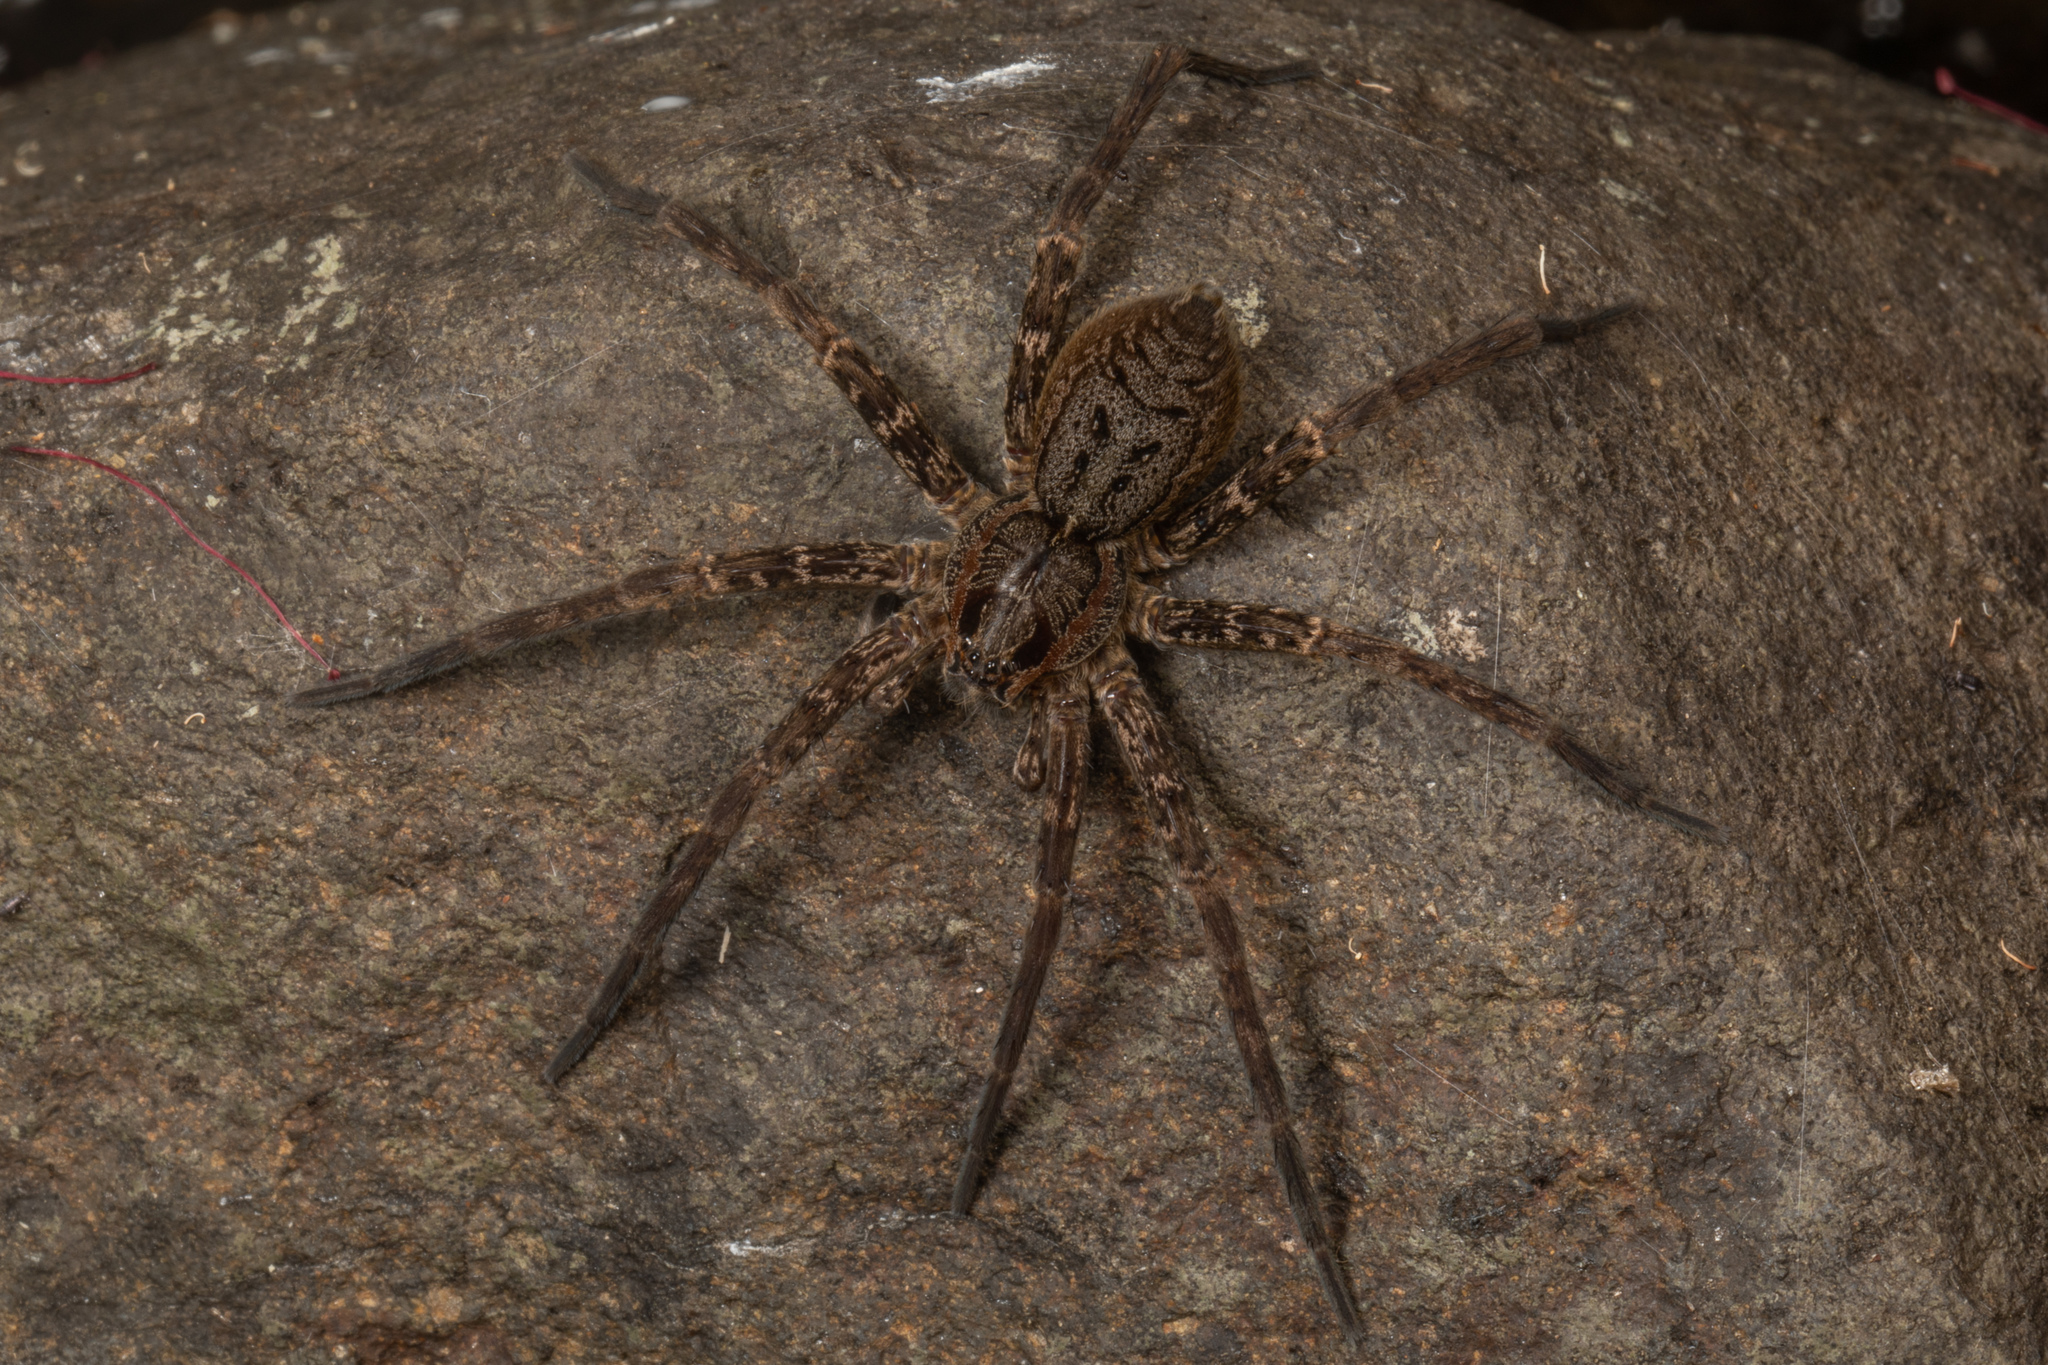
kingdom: Animalia
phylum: Arthropoda
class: Arachnida
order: Araneae
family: Pisauridae
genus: Dolomedes
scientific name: Dolomedes dondalei
